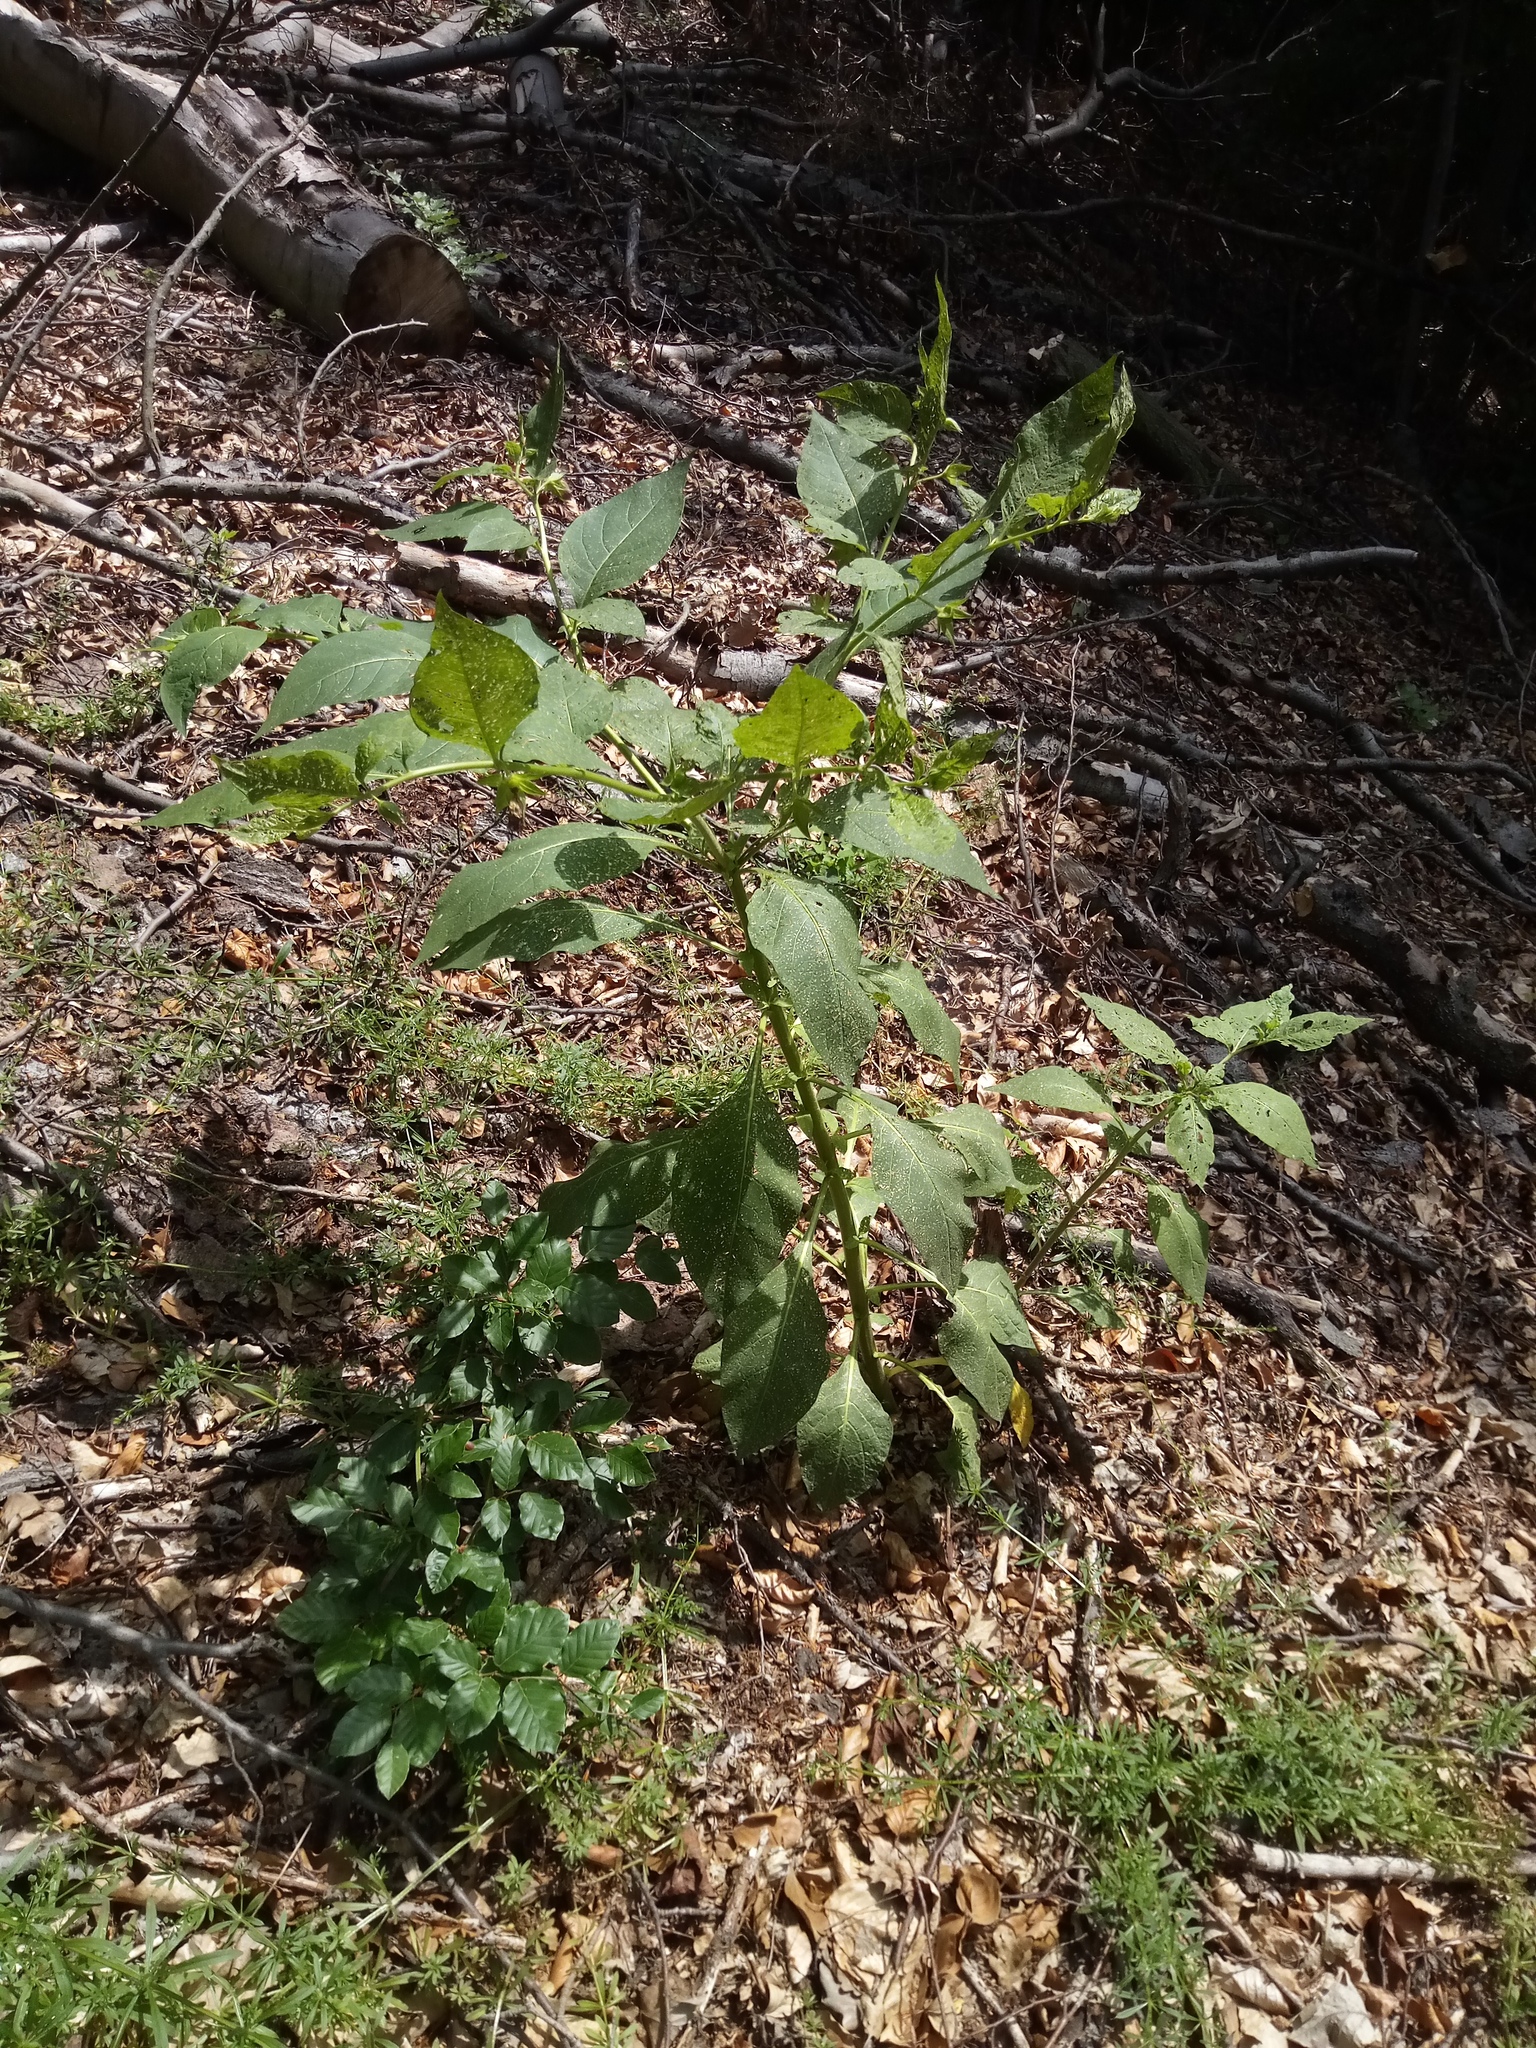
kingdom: Plantae
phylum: Tracheophyta
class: Magnoliopsida
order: Solanales
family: Solanaceae
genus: Atropa
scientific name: Atropa belladonna
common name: Deadly nightshade
